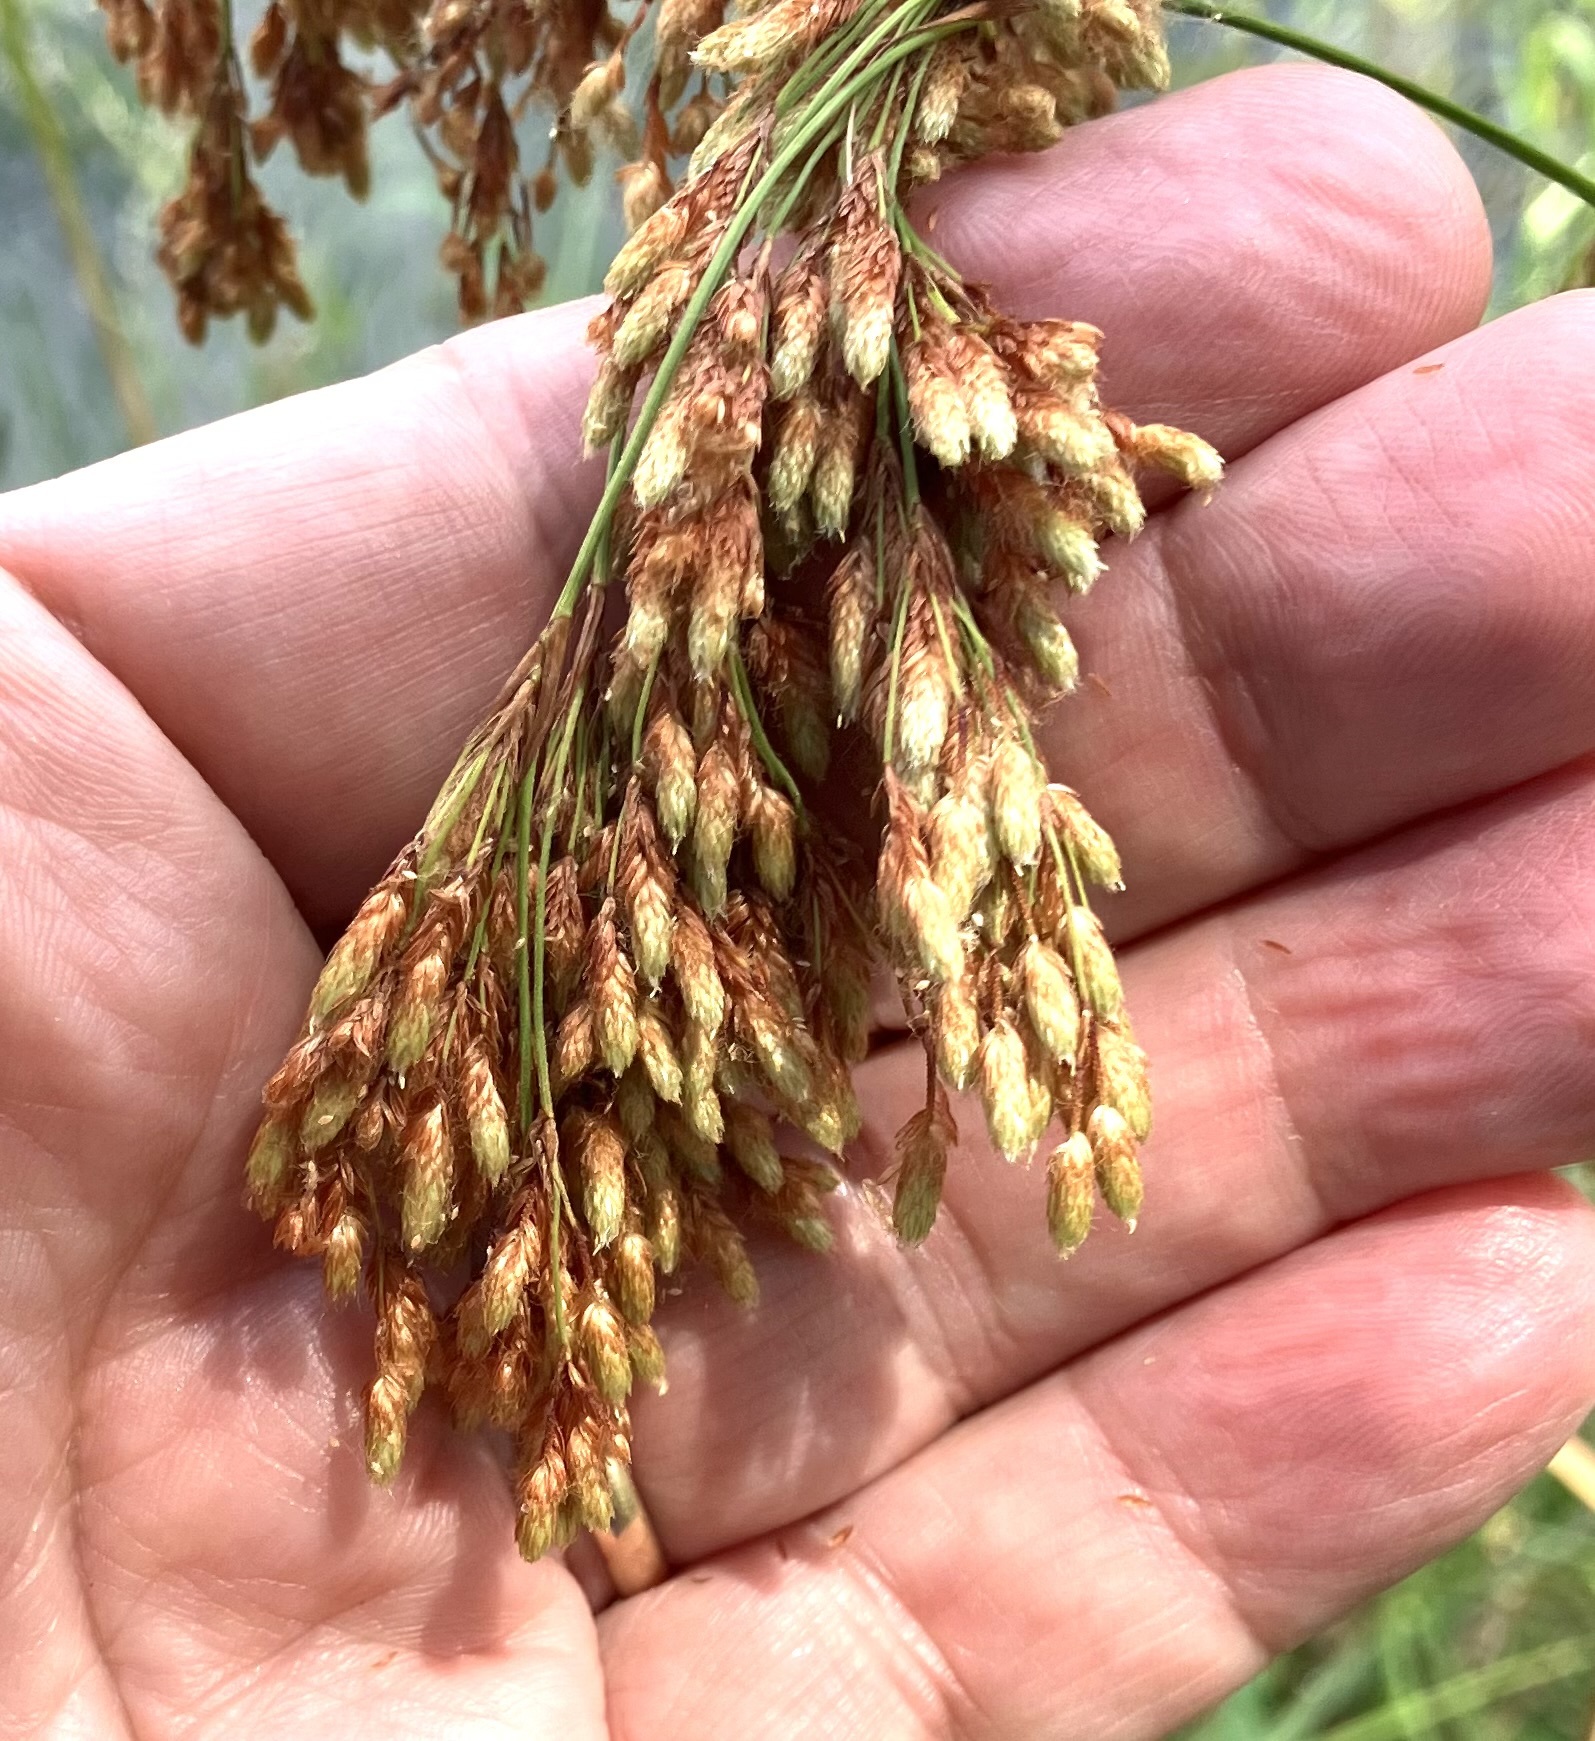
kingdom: Plantae
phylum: Tracheophyta
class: Liliopsida
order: Poales
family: Cyperaceae
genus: Scirpus
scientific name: Scirpus cyperinus
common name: Black-sheathed bulrush
